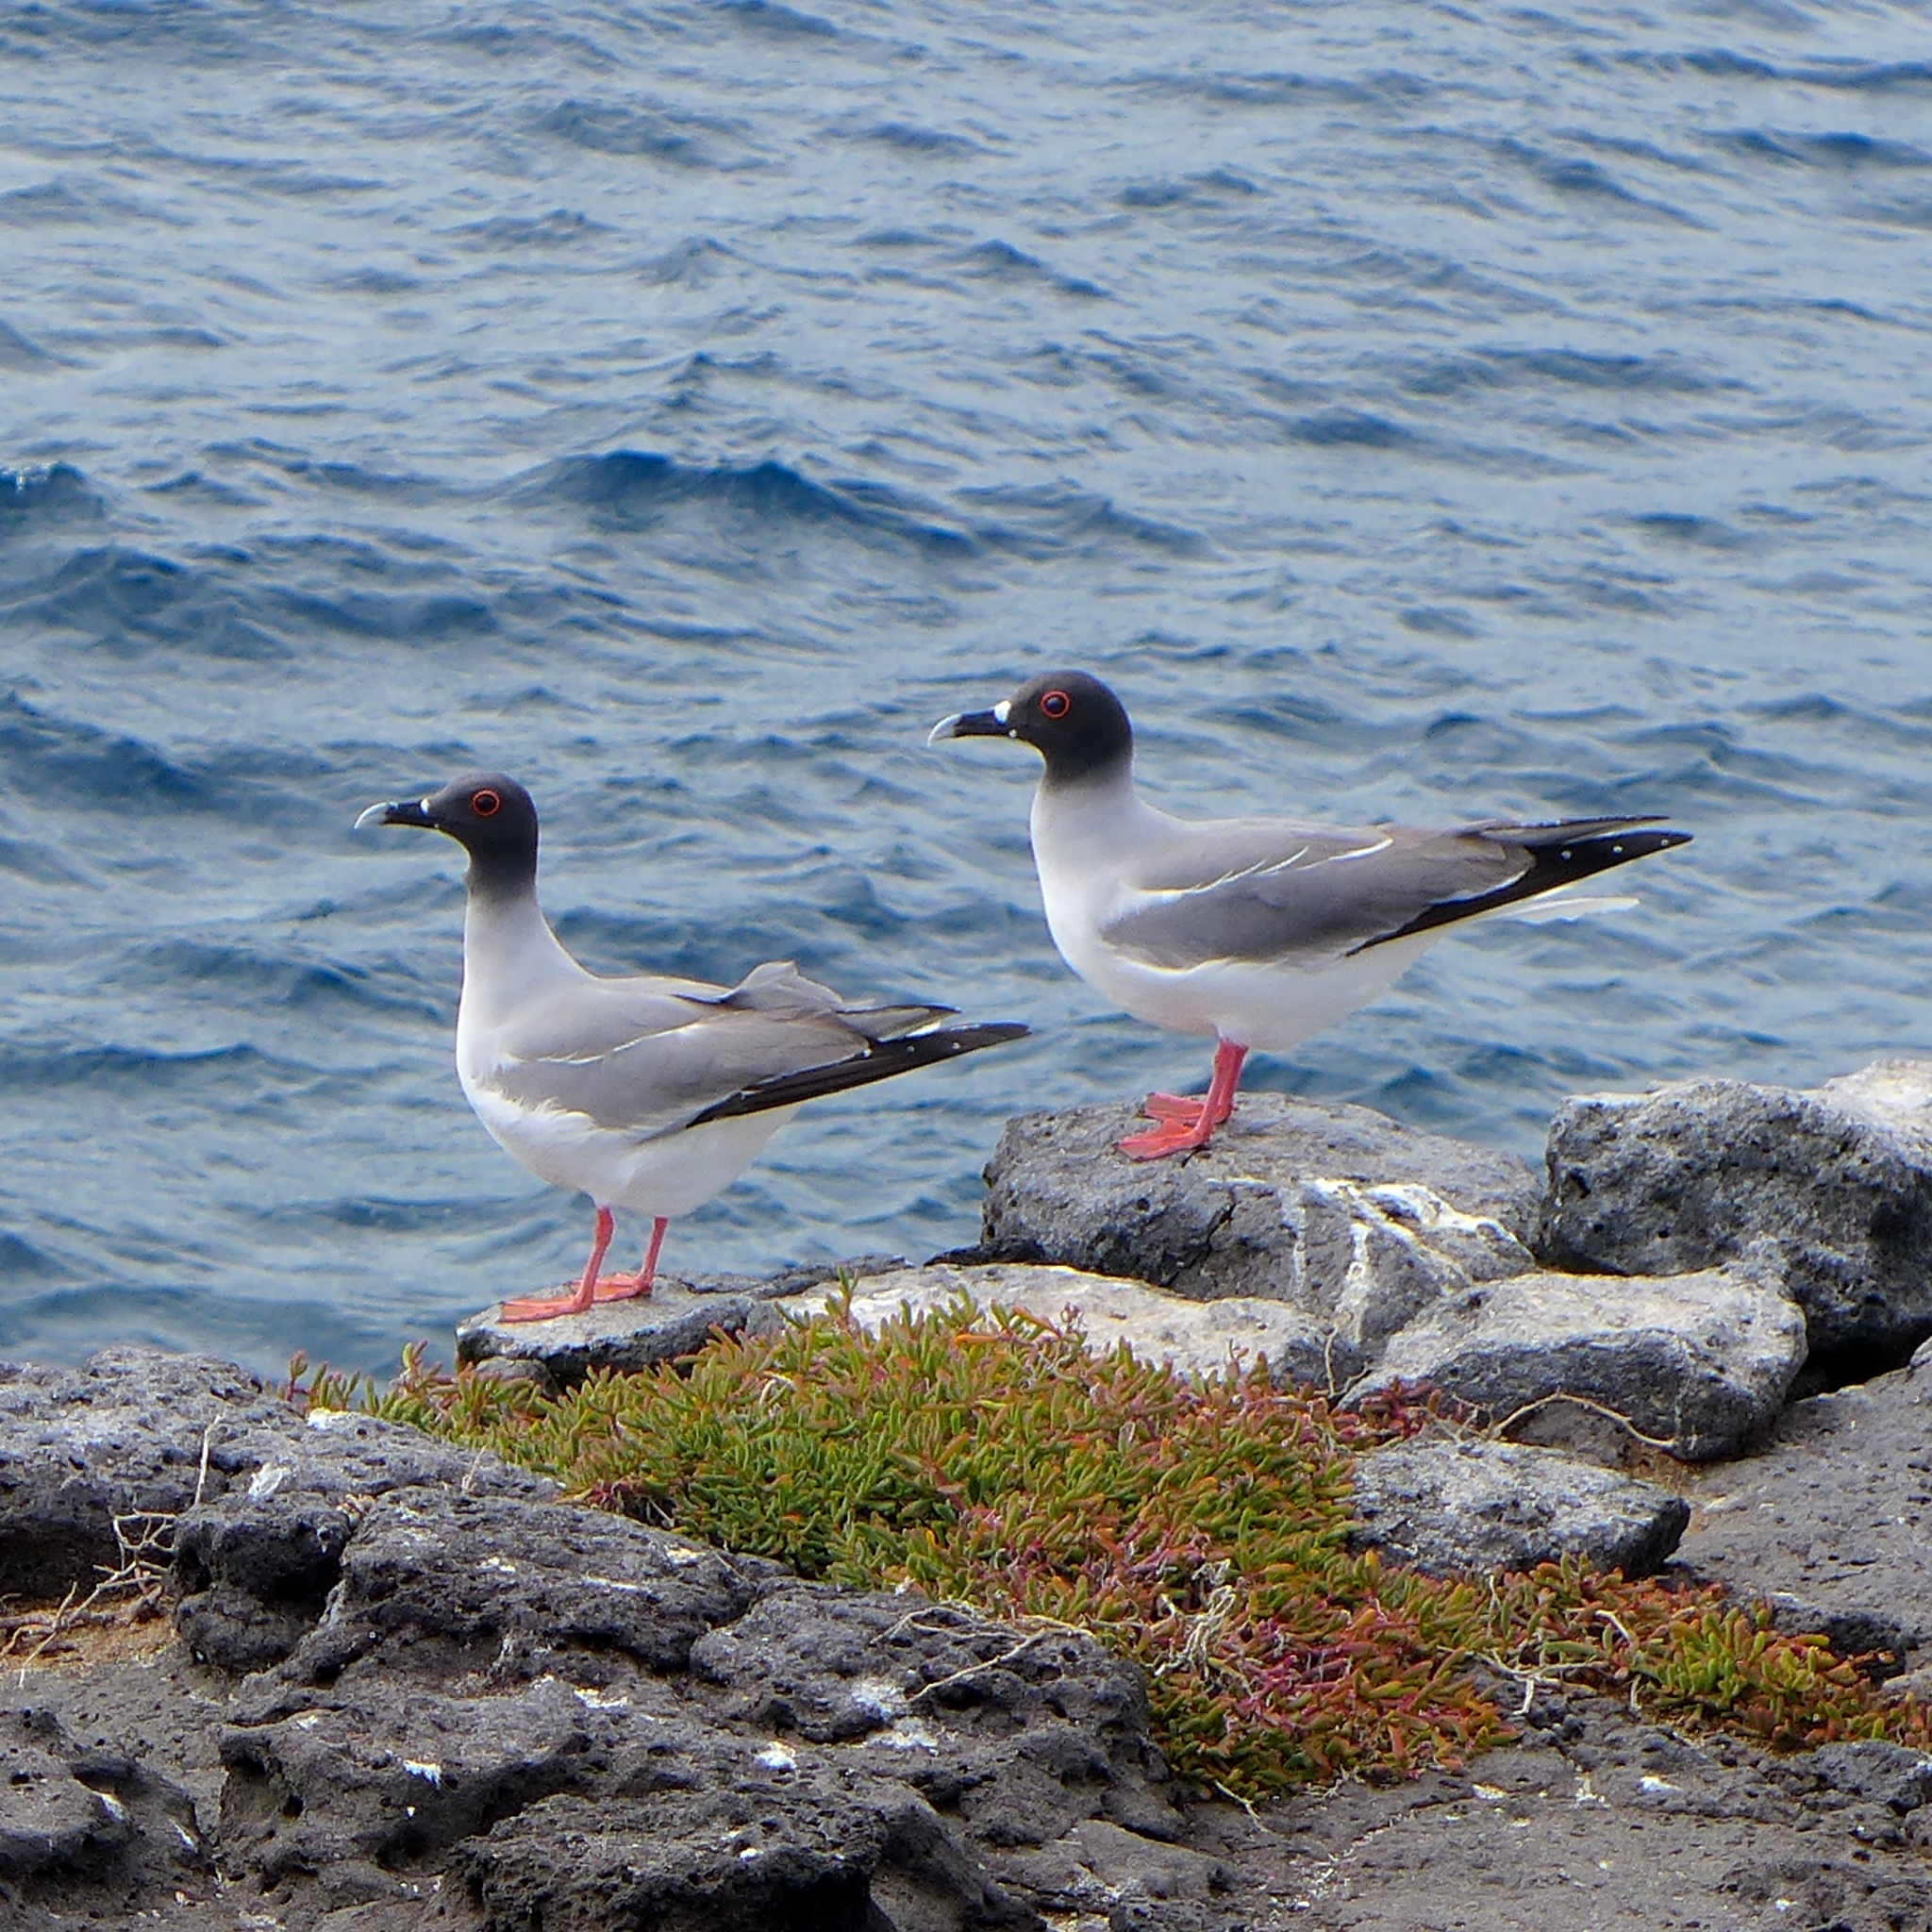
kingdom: Animalia
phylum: Chordata
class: Aves
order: Charadriiformes
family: Laridae
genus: Creagrus
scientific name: Creagrus furcatus
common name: Swallow-tailed gull
